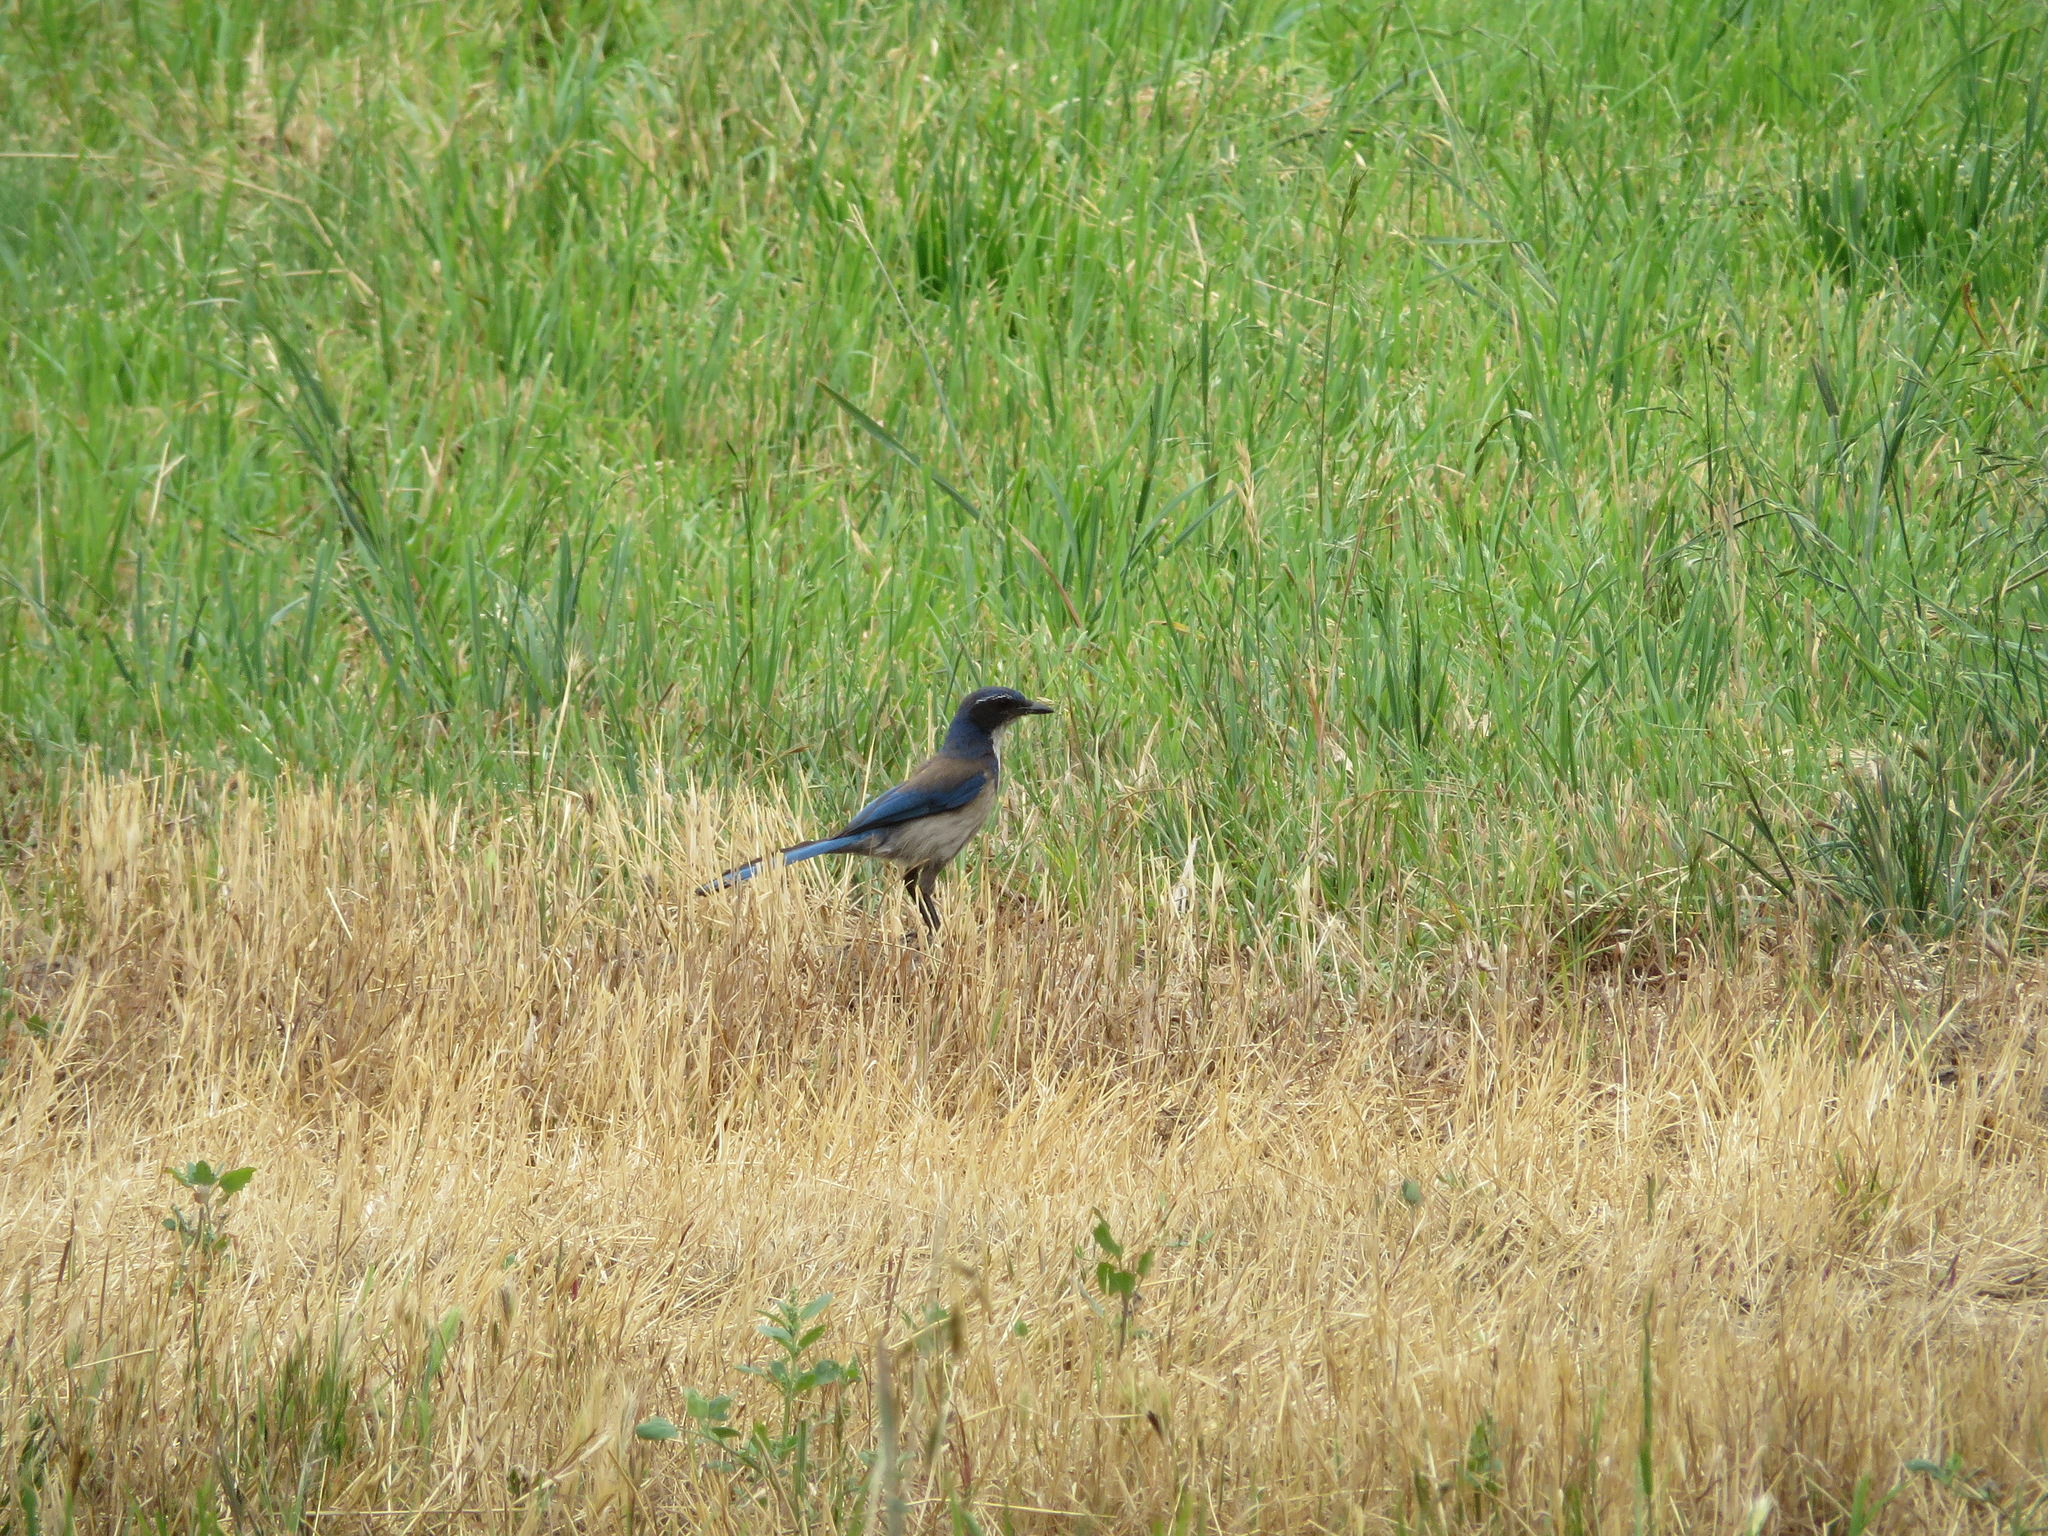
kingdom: Animalia
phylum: Chordata
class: Aves
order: Passeriformes
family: Corvidae
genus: Aphelocoma
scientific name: Aphelocoma californica
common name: California scrub-jay
